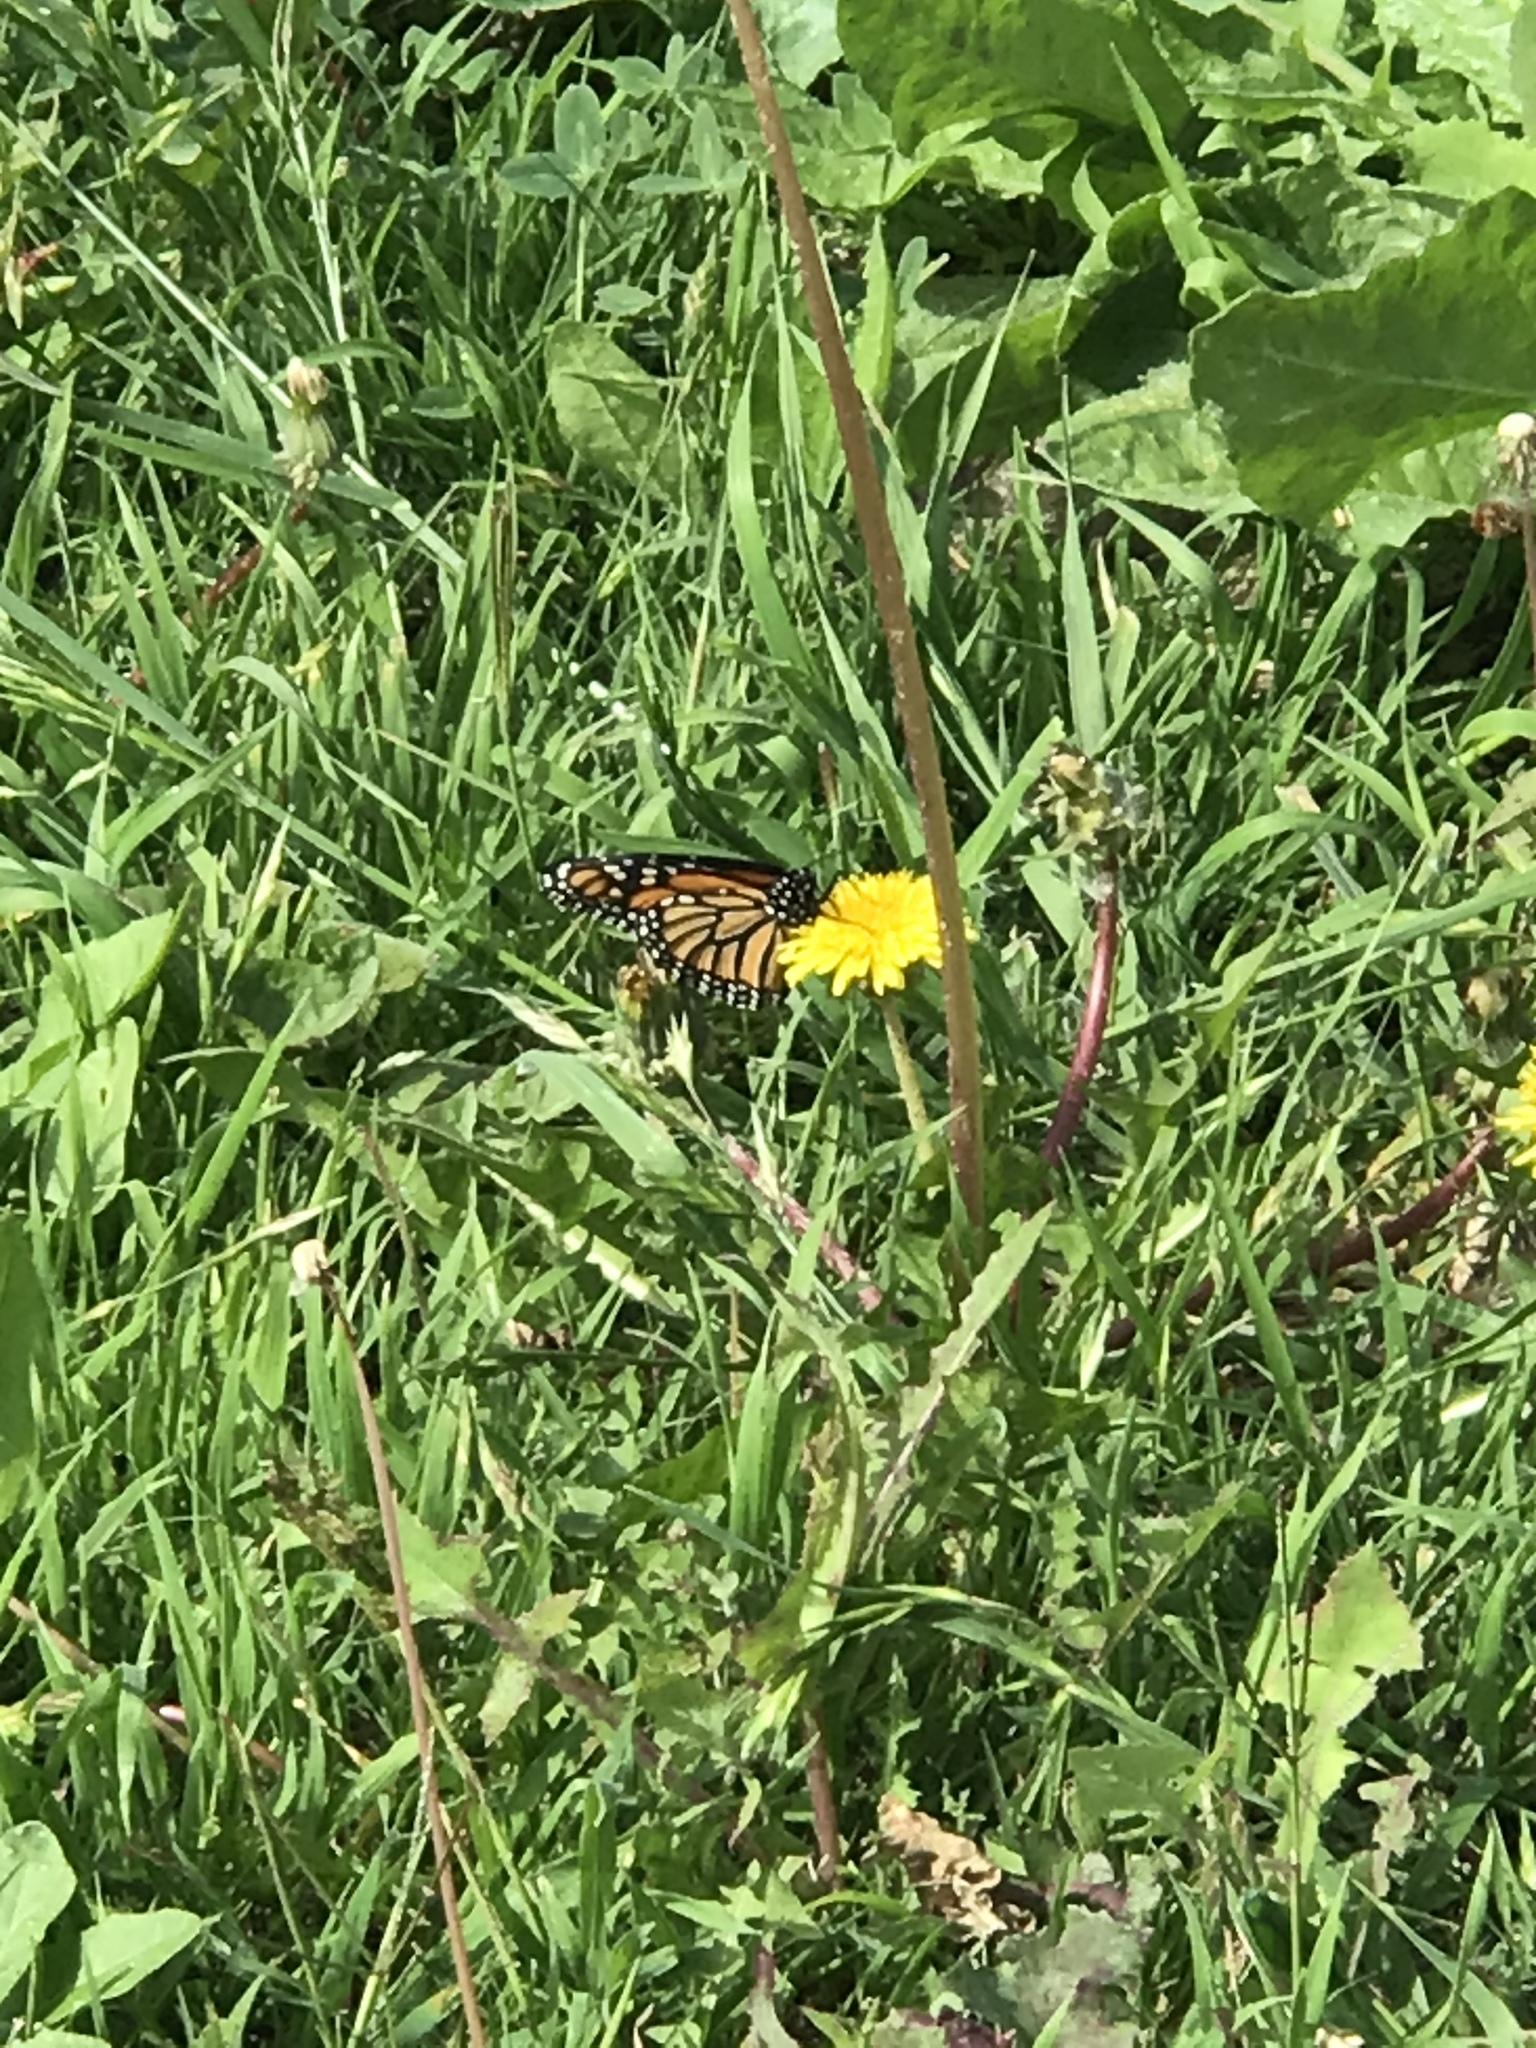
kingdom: Animalia
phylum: Arthropoda
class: Insecta
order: Lepidoptera
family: Nymphalidae
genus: Danaus
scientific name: Danaus plexippus
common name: Monarch
